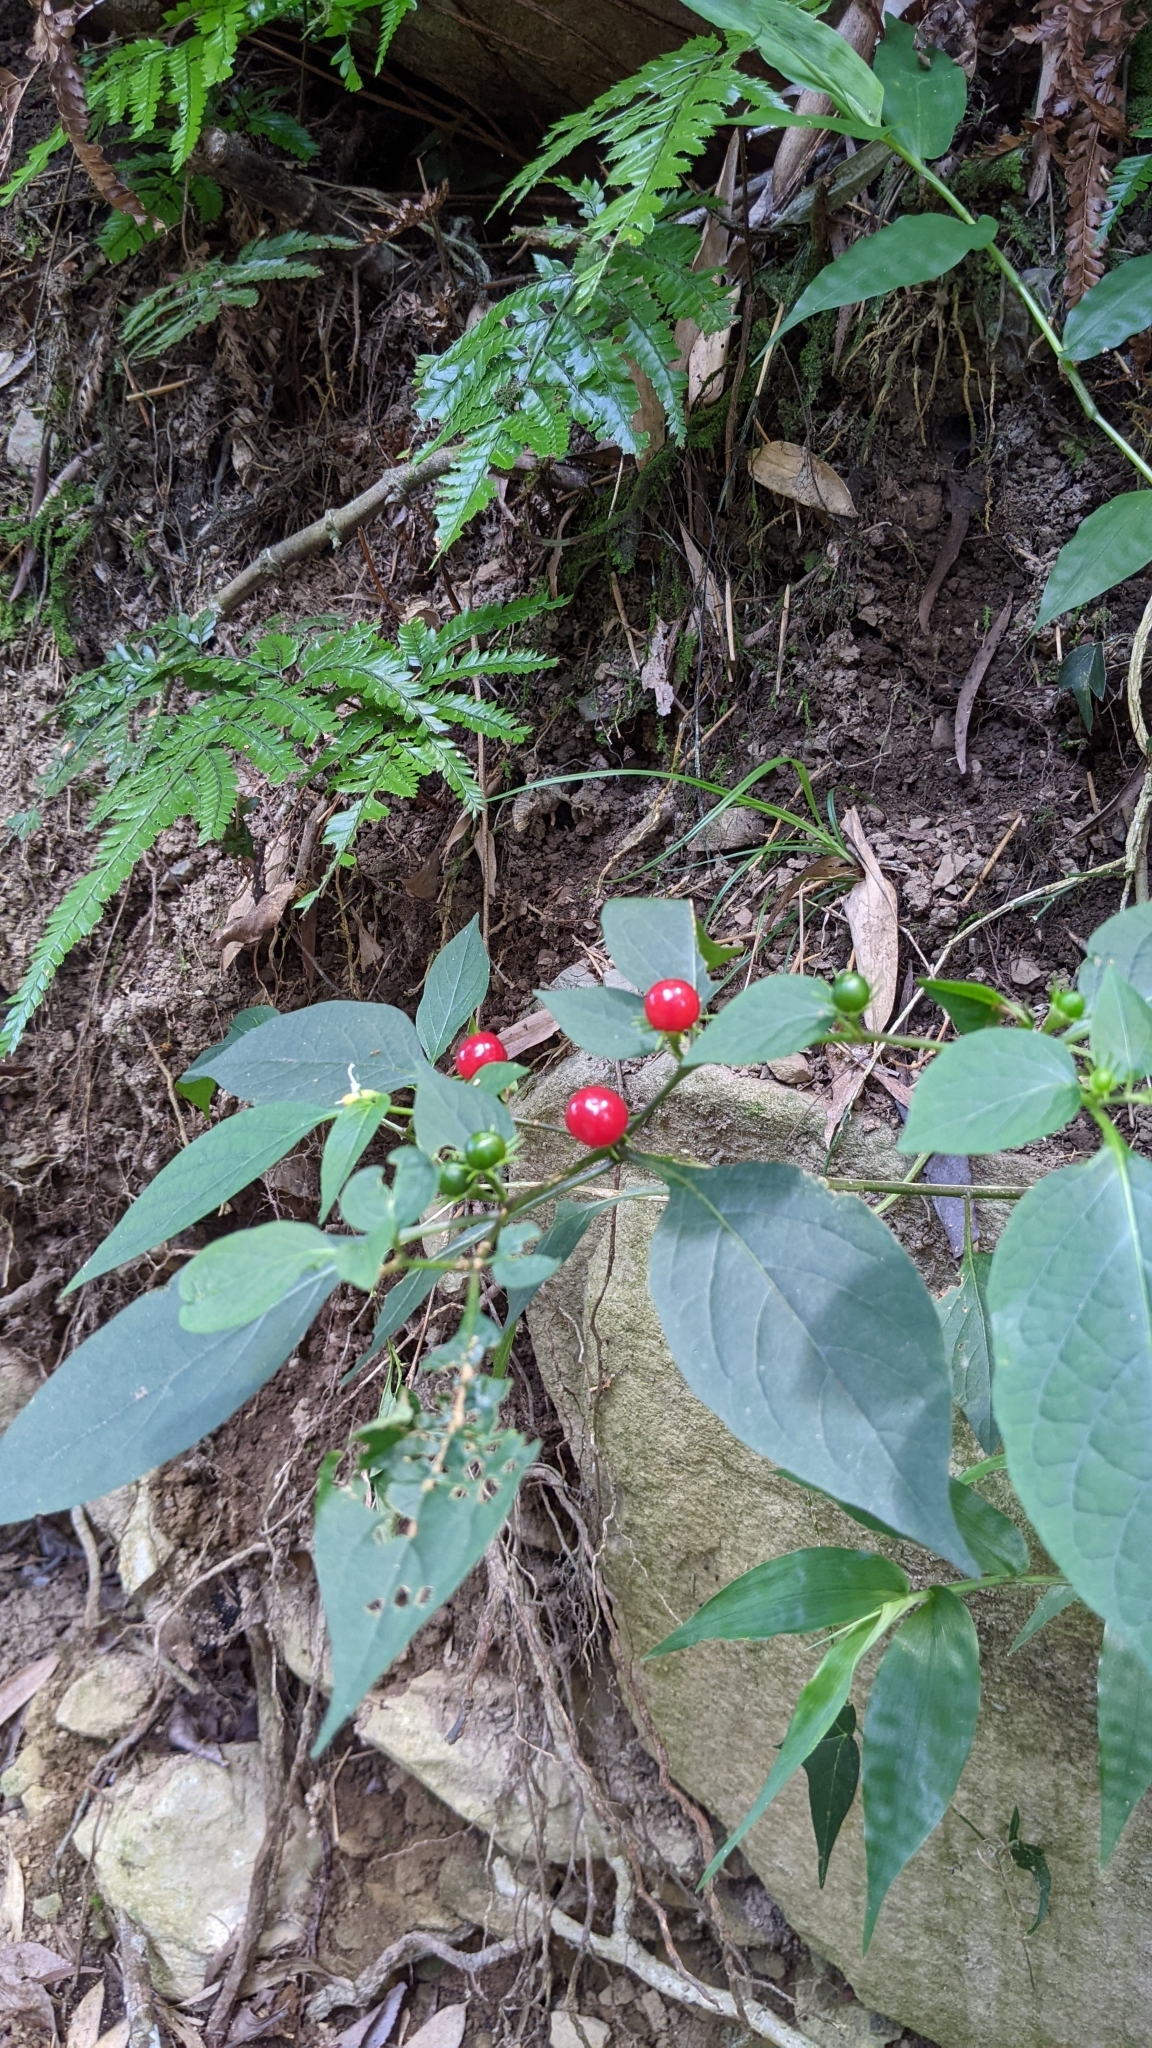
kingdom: Plantae
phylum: Tracheophyta
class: Magnoliopsida
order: Solanales
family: Solanaceae
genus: Lycianthes
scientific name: Lycianthes biflora
